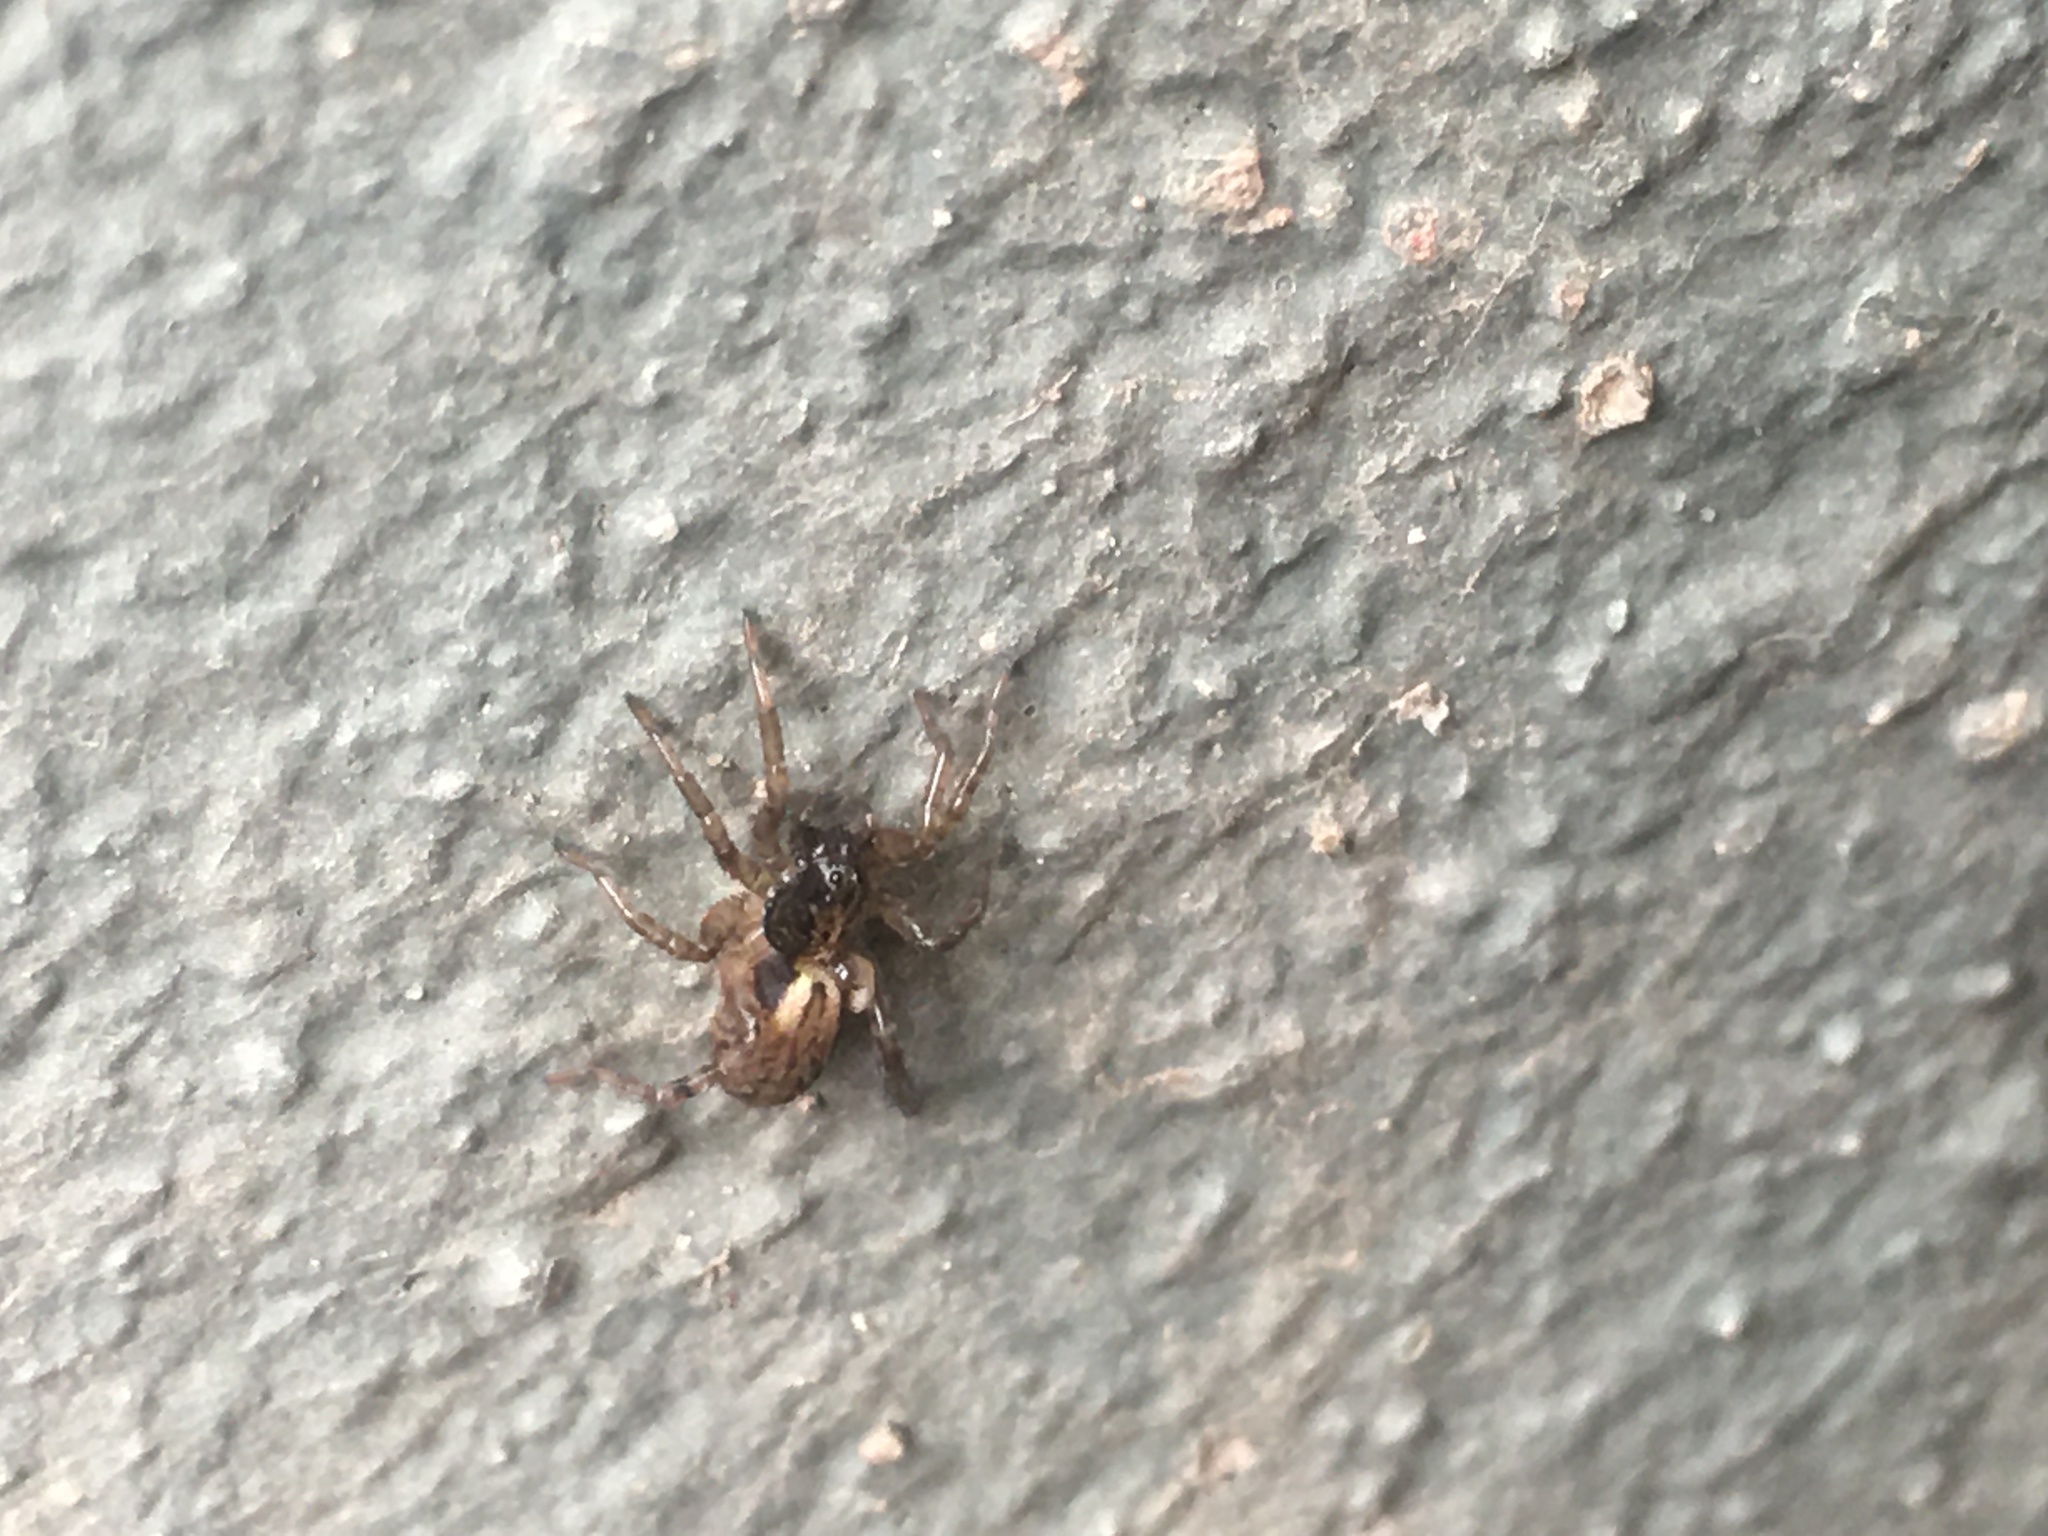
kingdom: Animalia
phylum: Arthropoda
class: Arachnida
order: Araneae
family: Lycosidae
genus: Abaycosa
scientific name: Abaycosa nanica
